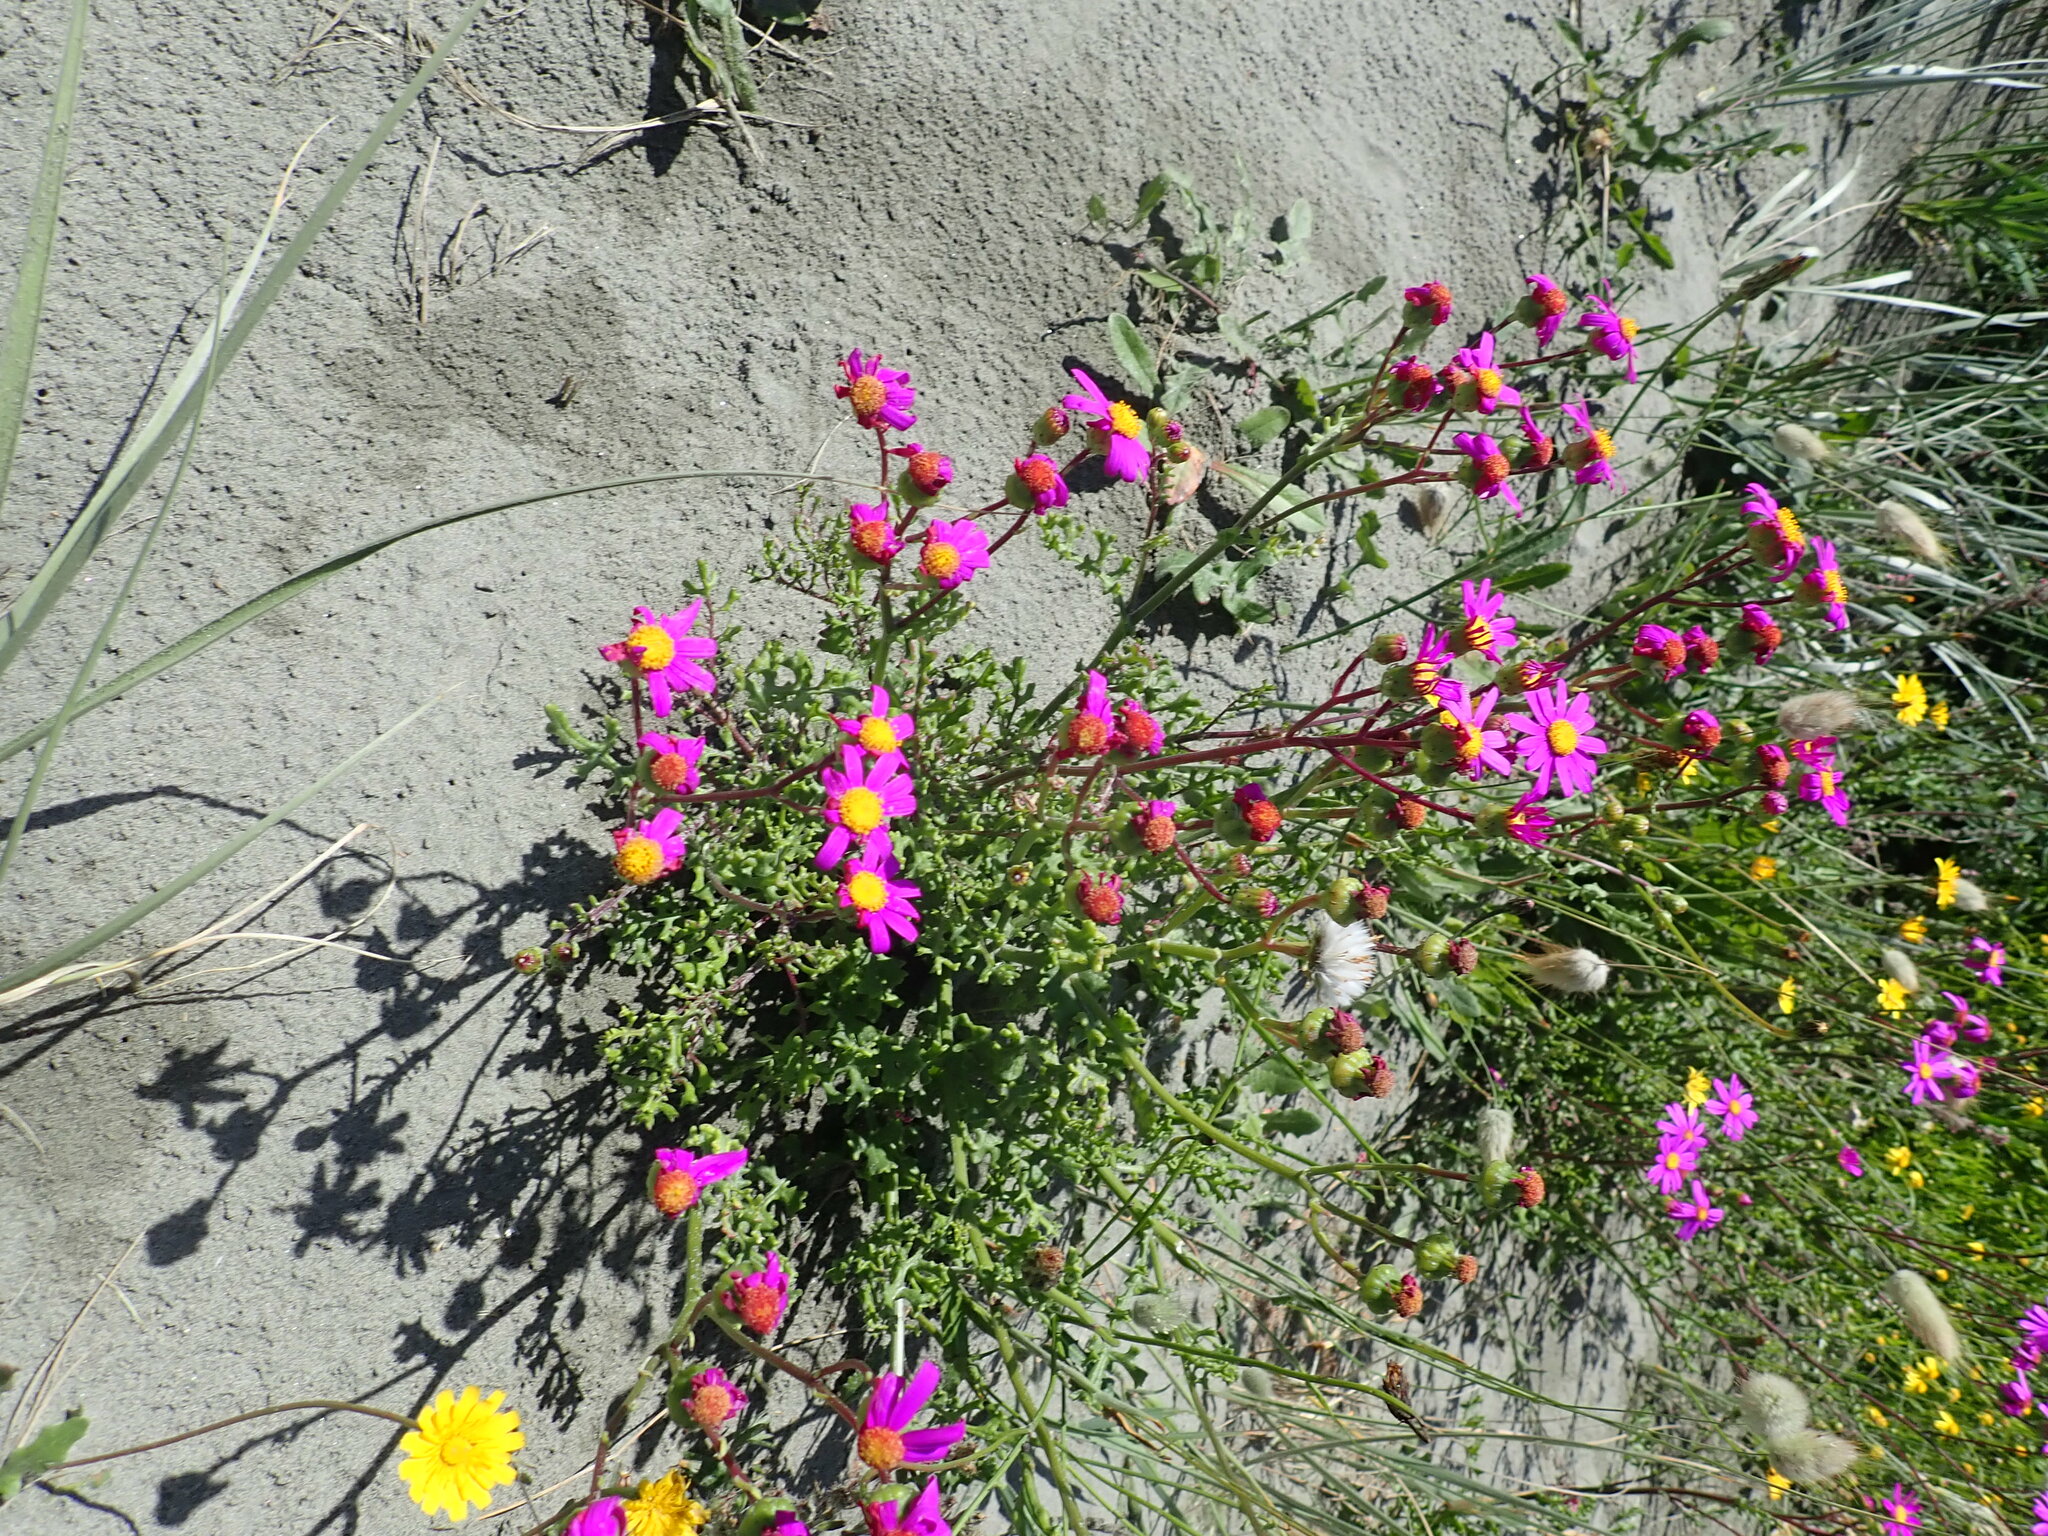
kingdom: Plantae
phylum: Tracheophyta
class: Magnoliopsida
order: Asterales
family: Asteraceae
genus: Senecio
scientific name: Senecio elegans
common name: Purple groundsel
